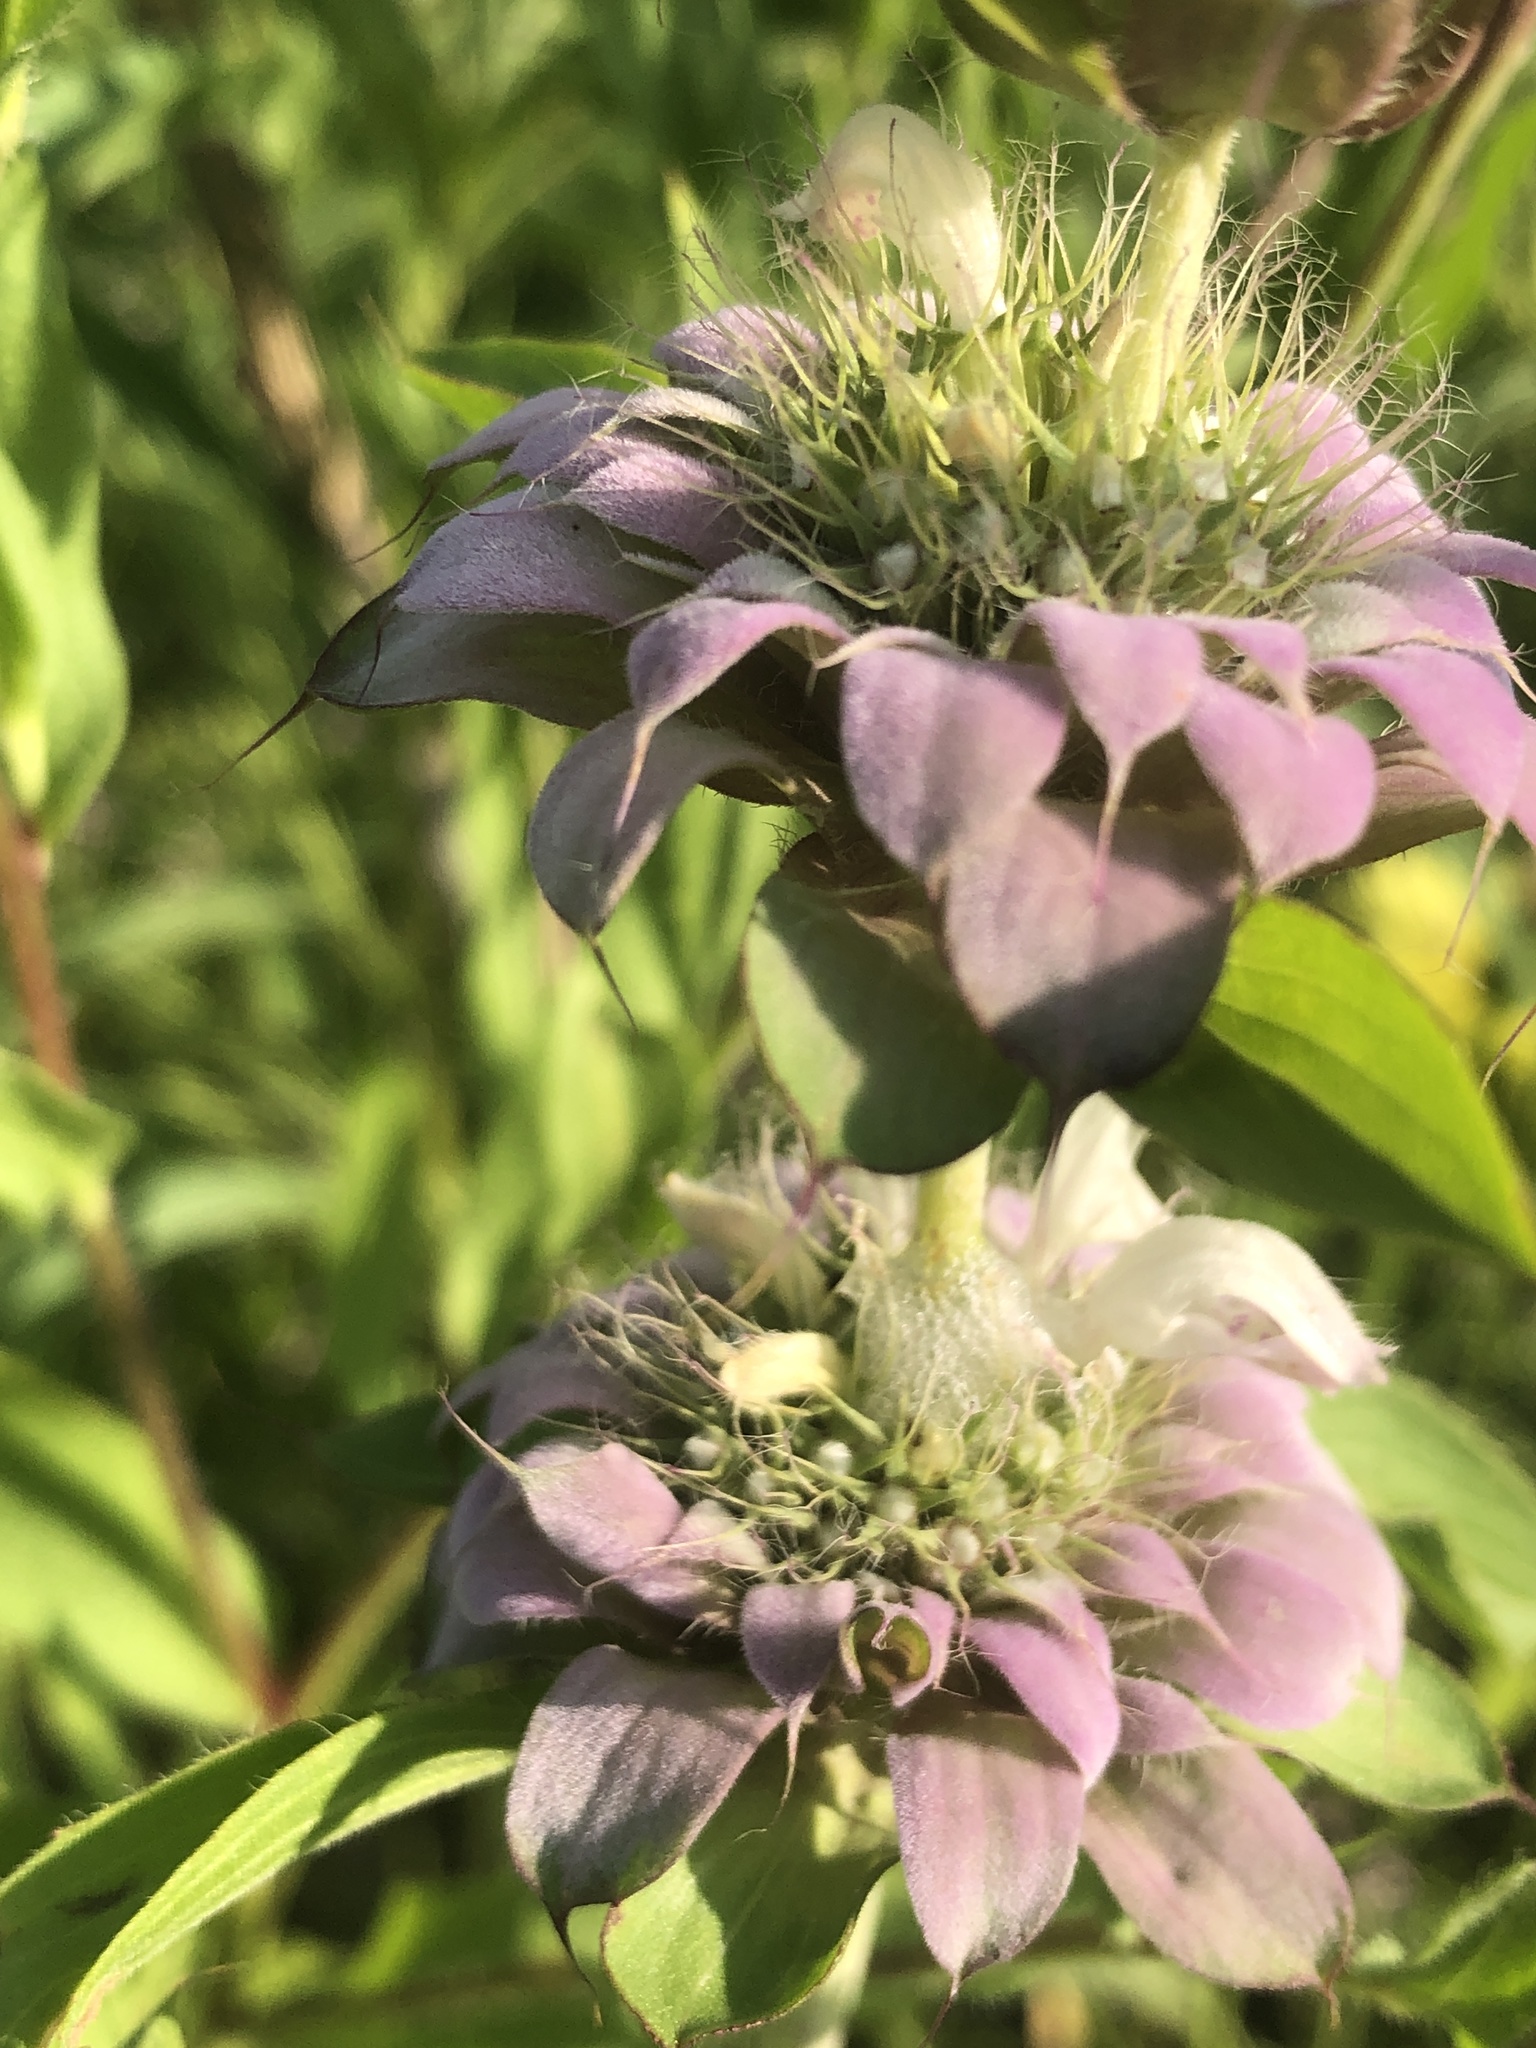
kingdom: Plantae
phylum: Tracheophyta
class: Magnoliopsida
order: Lamiales
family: Lamiaceae
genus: Monarda
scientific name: Monarda citriodora
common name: Lemon beebalm
